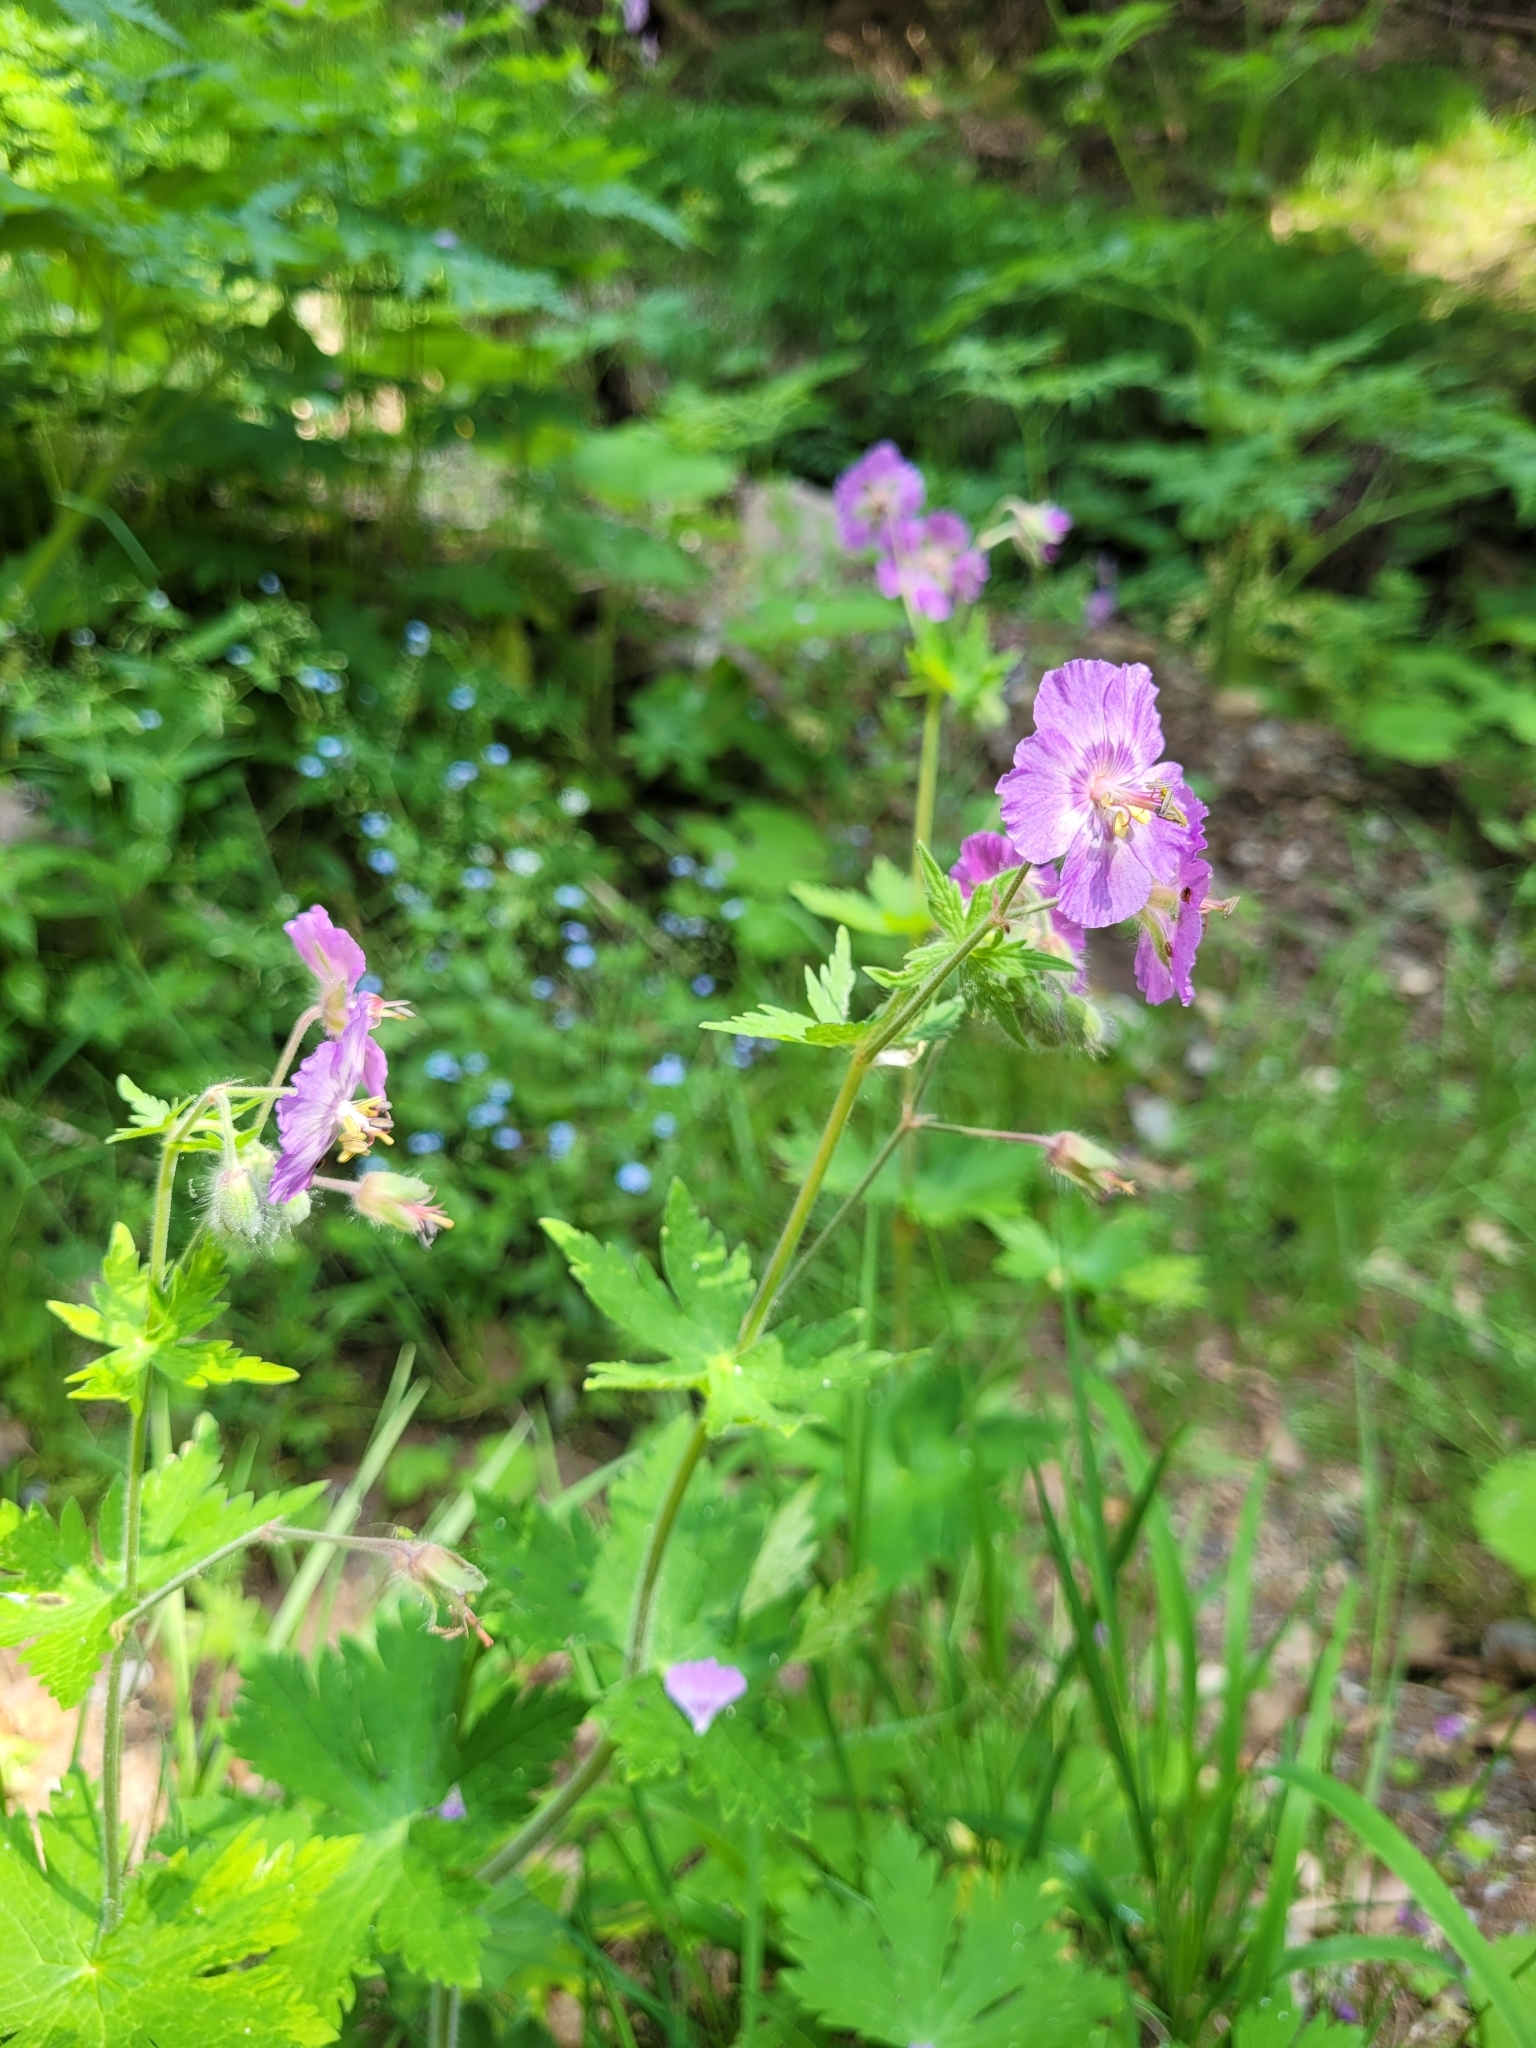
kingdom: Plantae
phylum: Tracheophyta
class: Magnoliopsida
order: Geraniales
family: Geraniaceae
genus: Geranium
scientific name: Geranium phaeum
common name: Dusky crane's-bill
